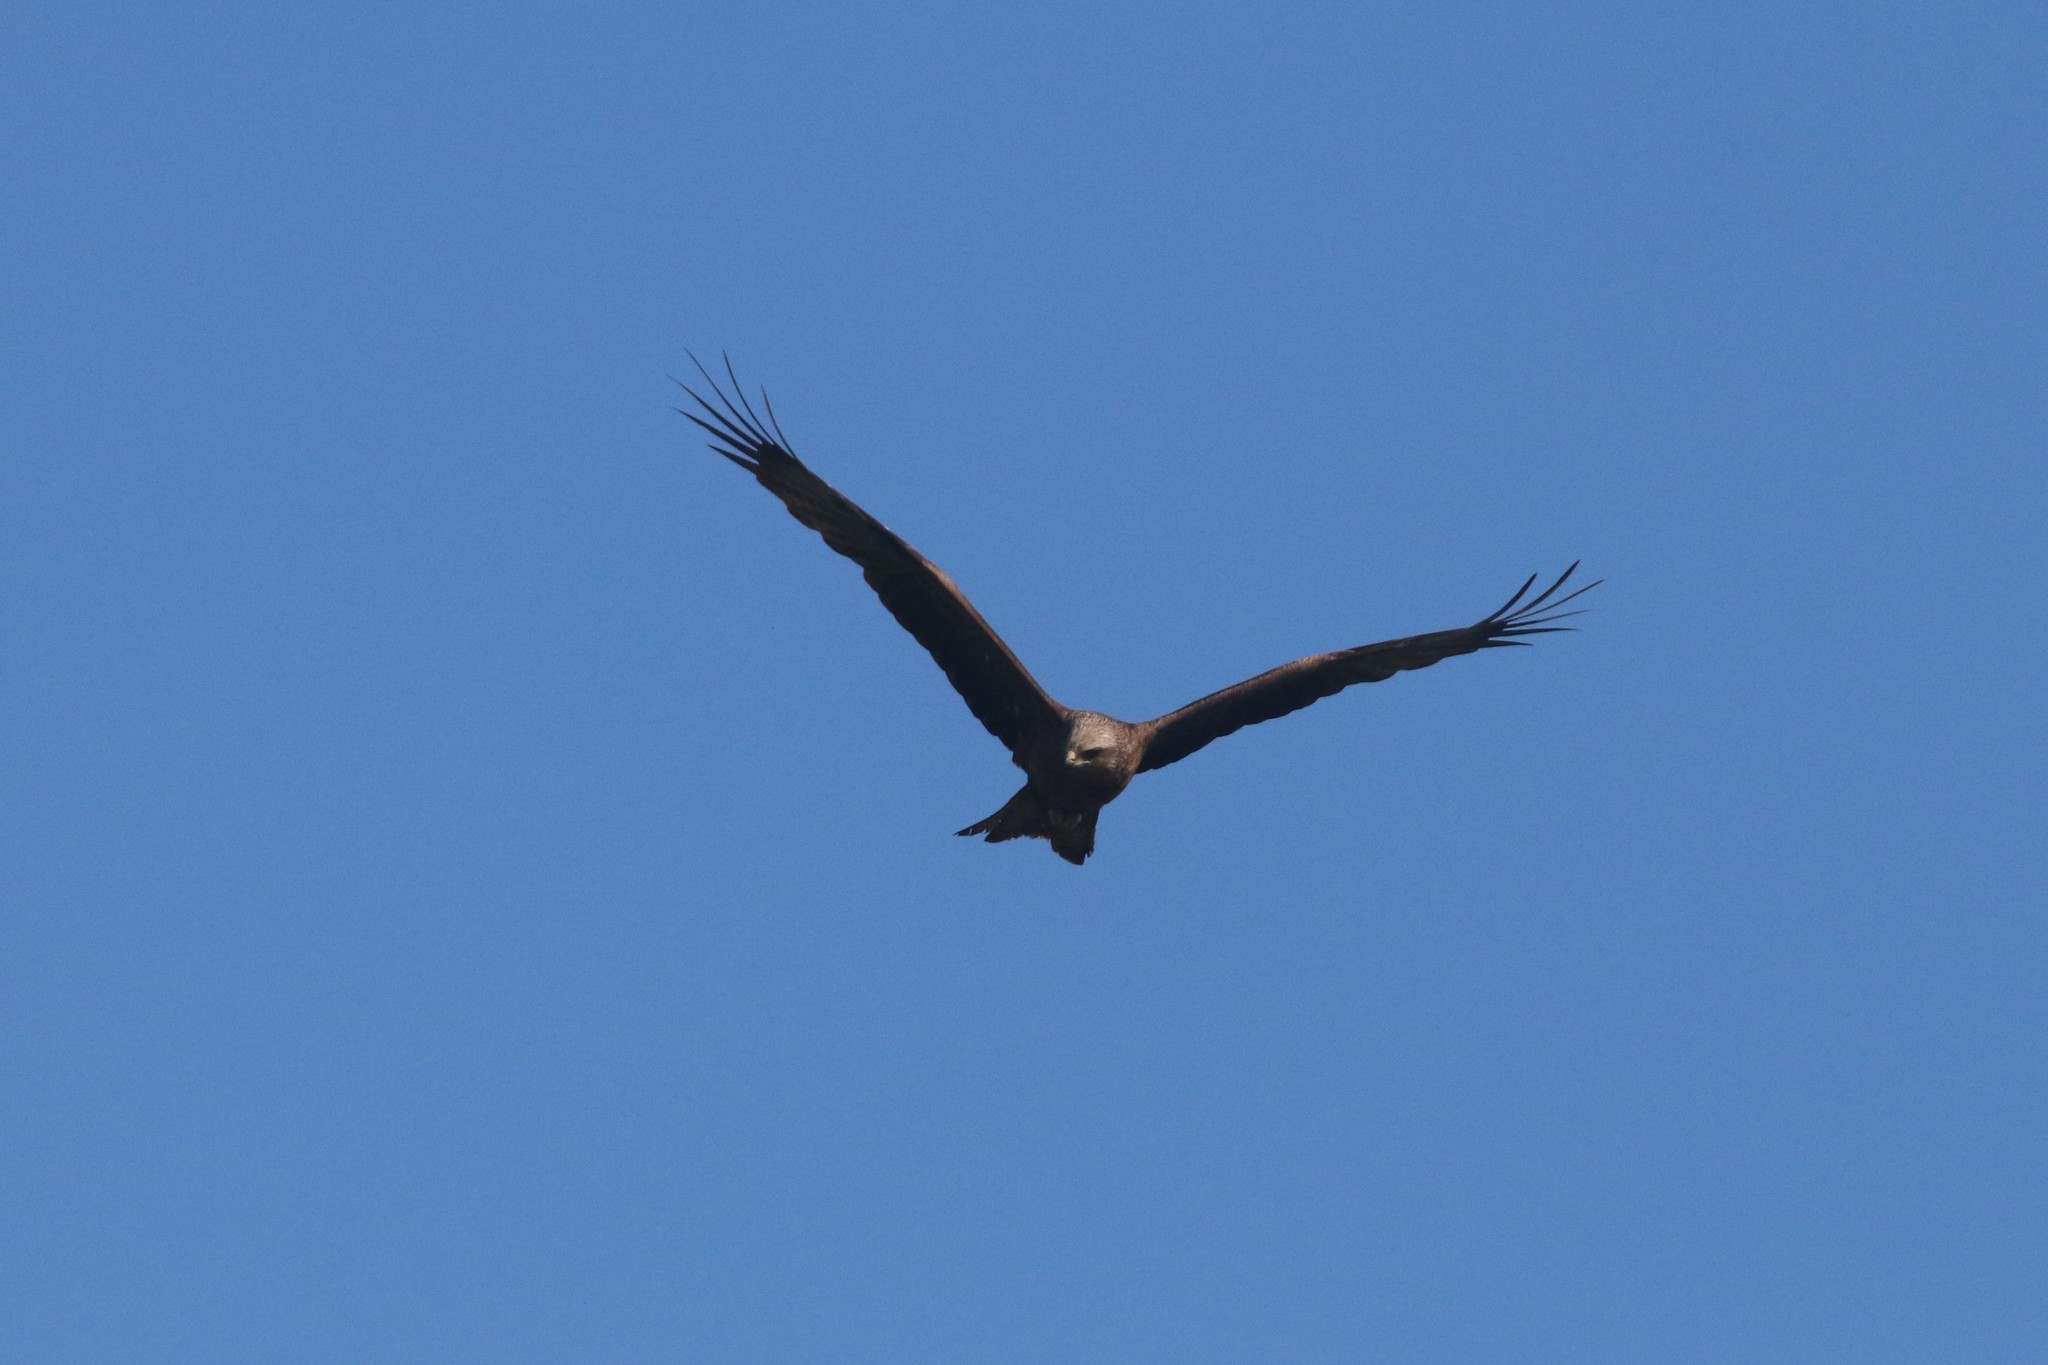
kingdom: Animalia
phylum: Chordata
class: Aves
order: Accipitriformes
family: Accipitridae
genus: Milvus
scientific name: Milvus migrans
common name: Black kite
